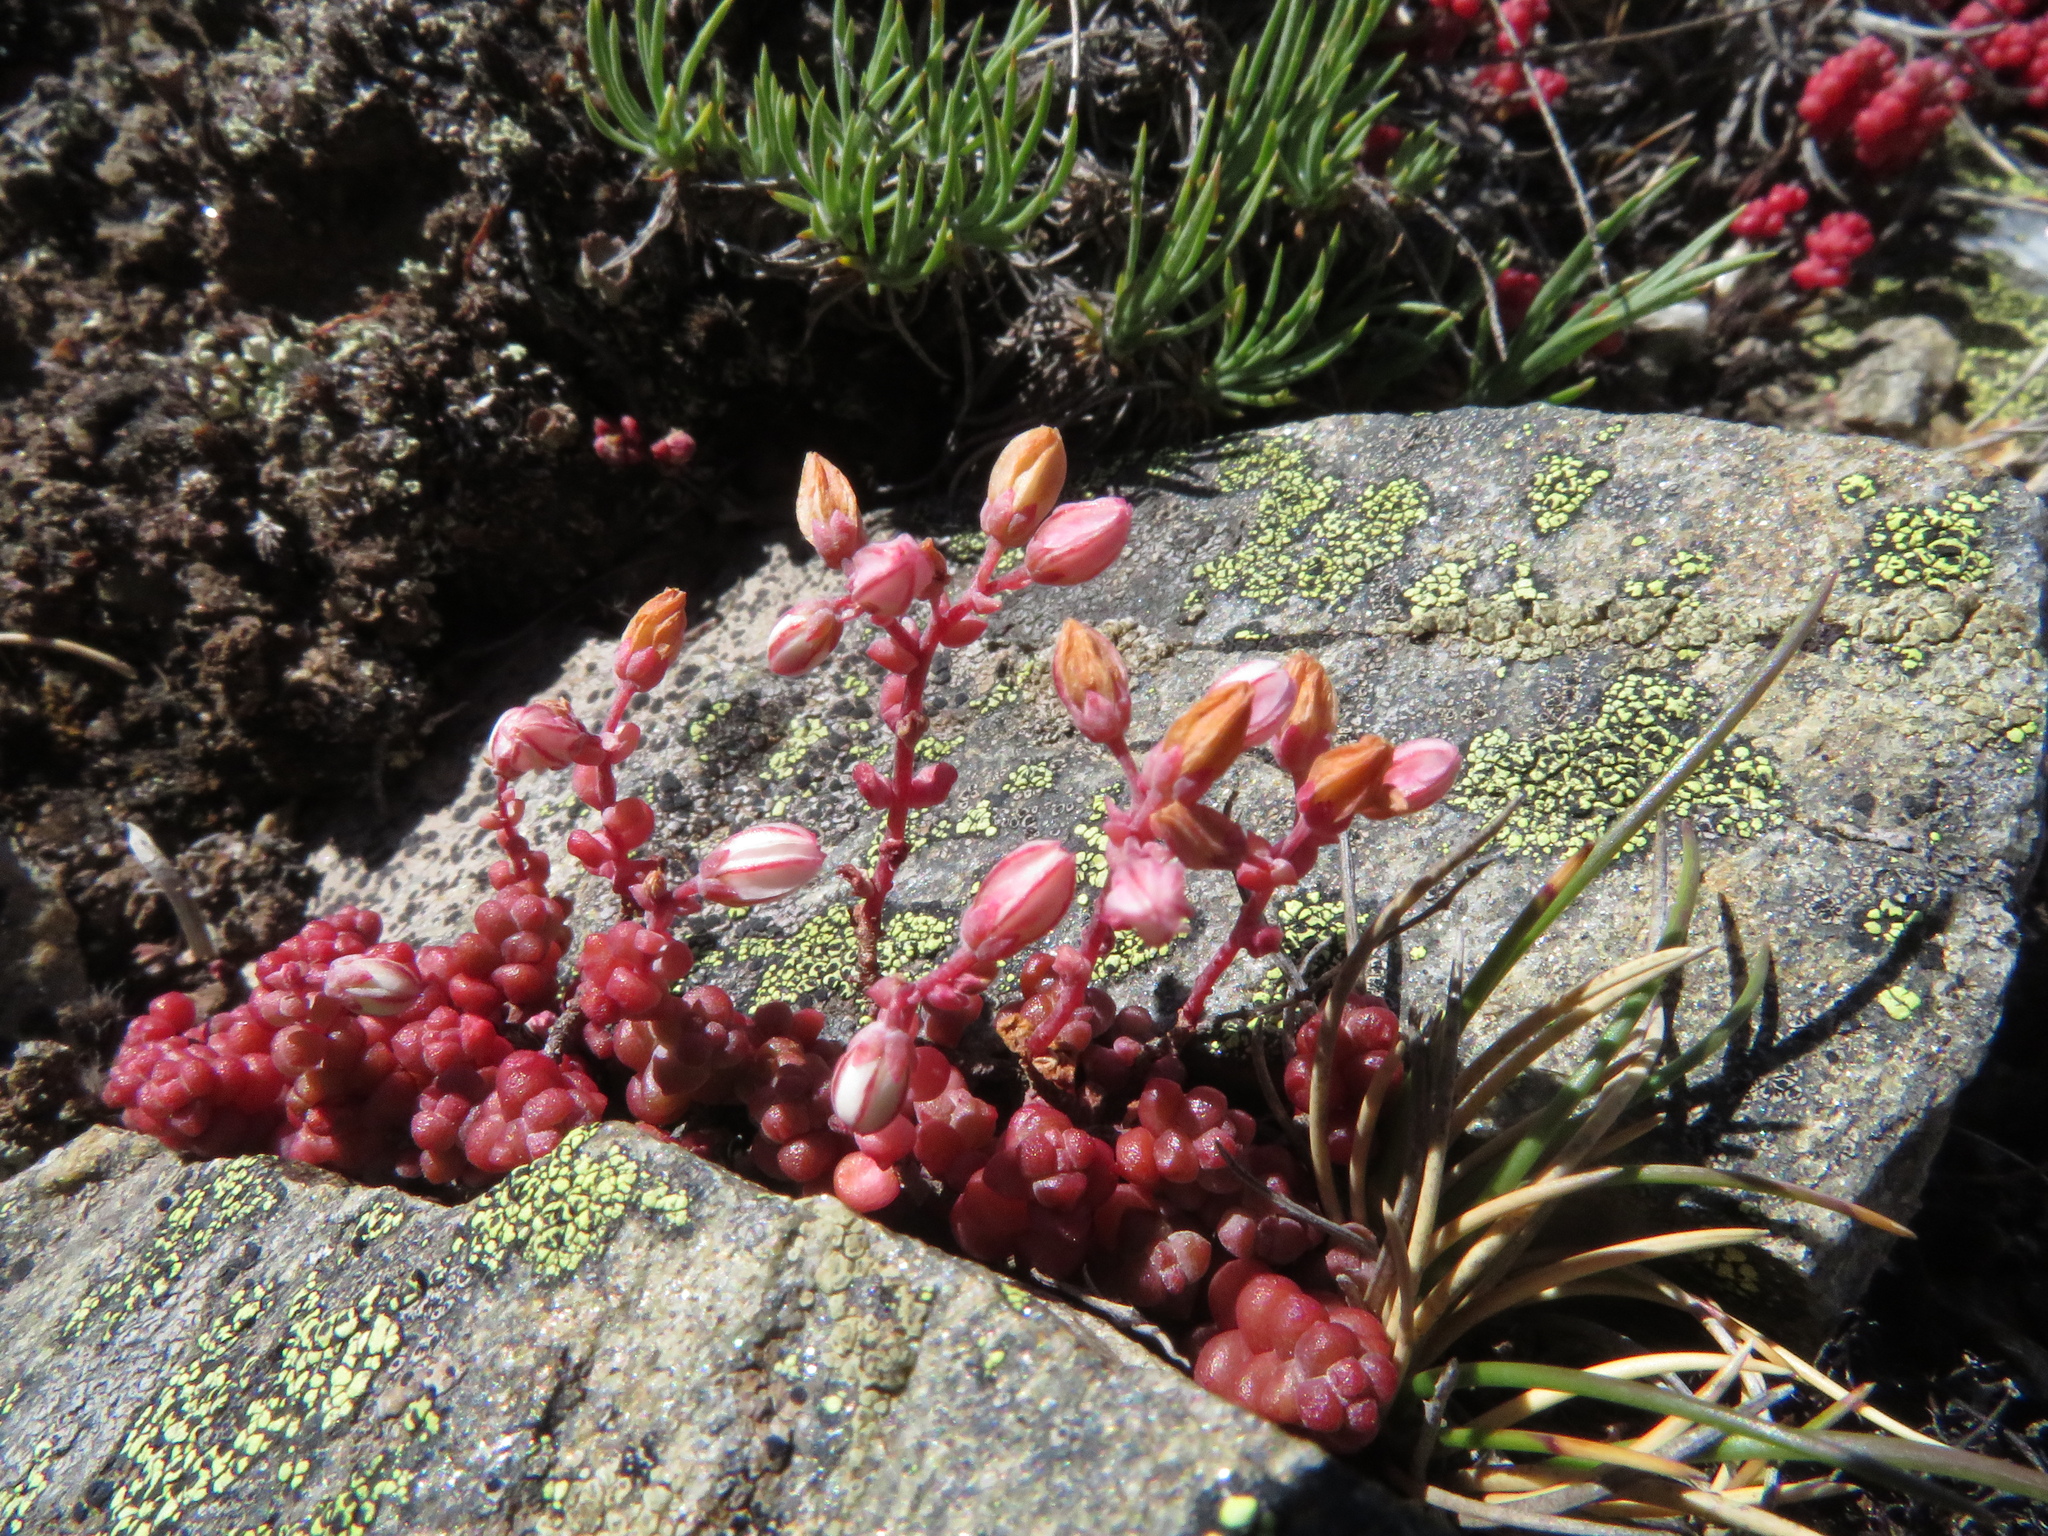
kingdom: Plantae
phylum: Tracheophyta
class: Magnoliopsida
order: Saxifragales
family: Crassulaceae
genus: Sedum
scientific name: Sedum brevifolium
